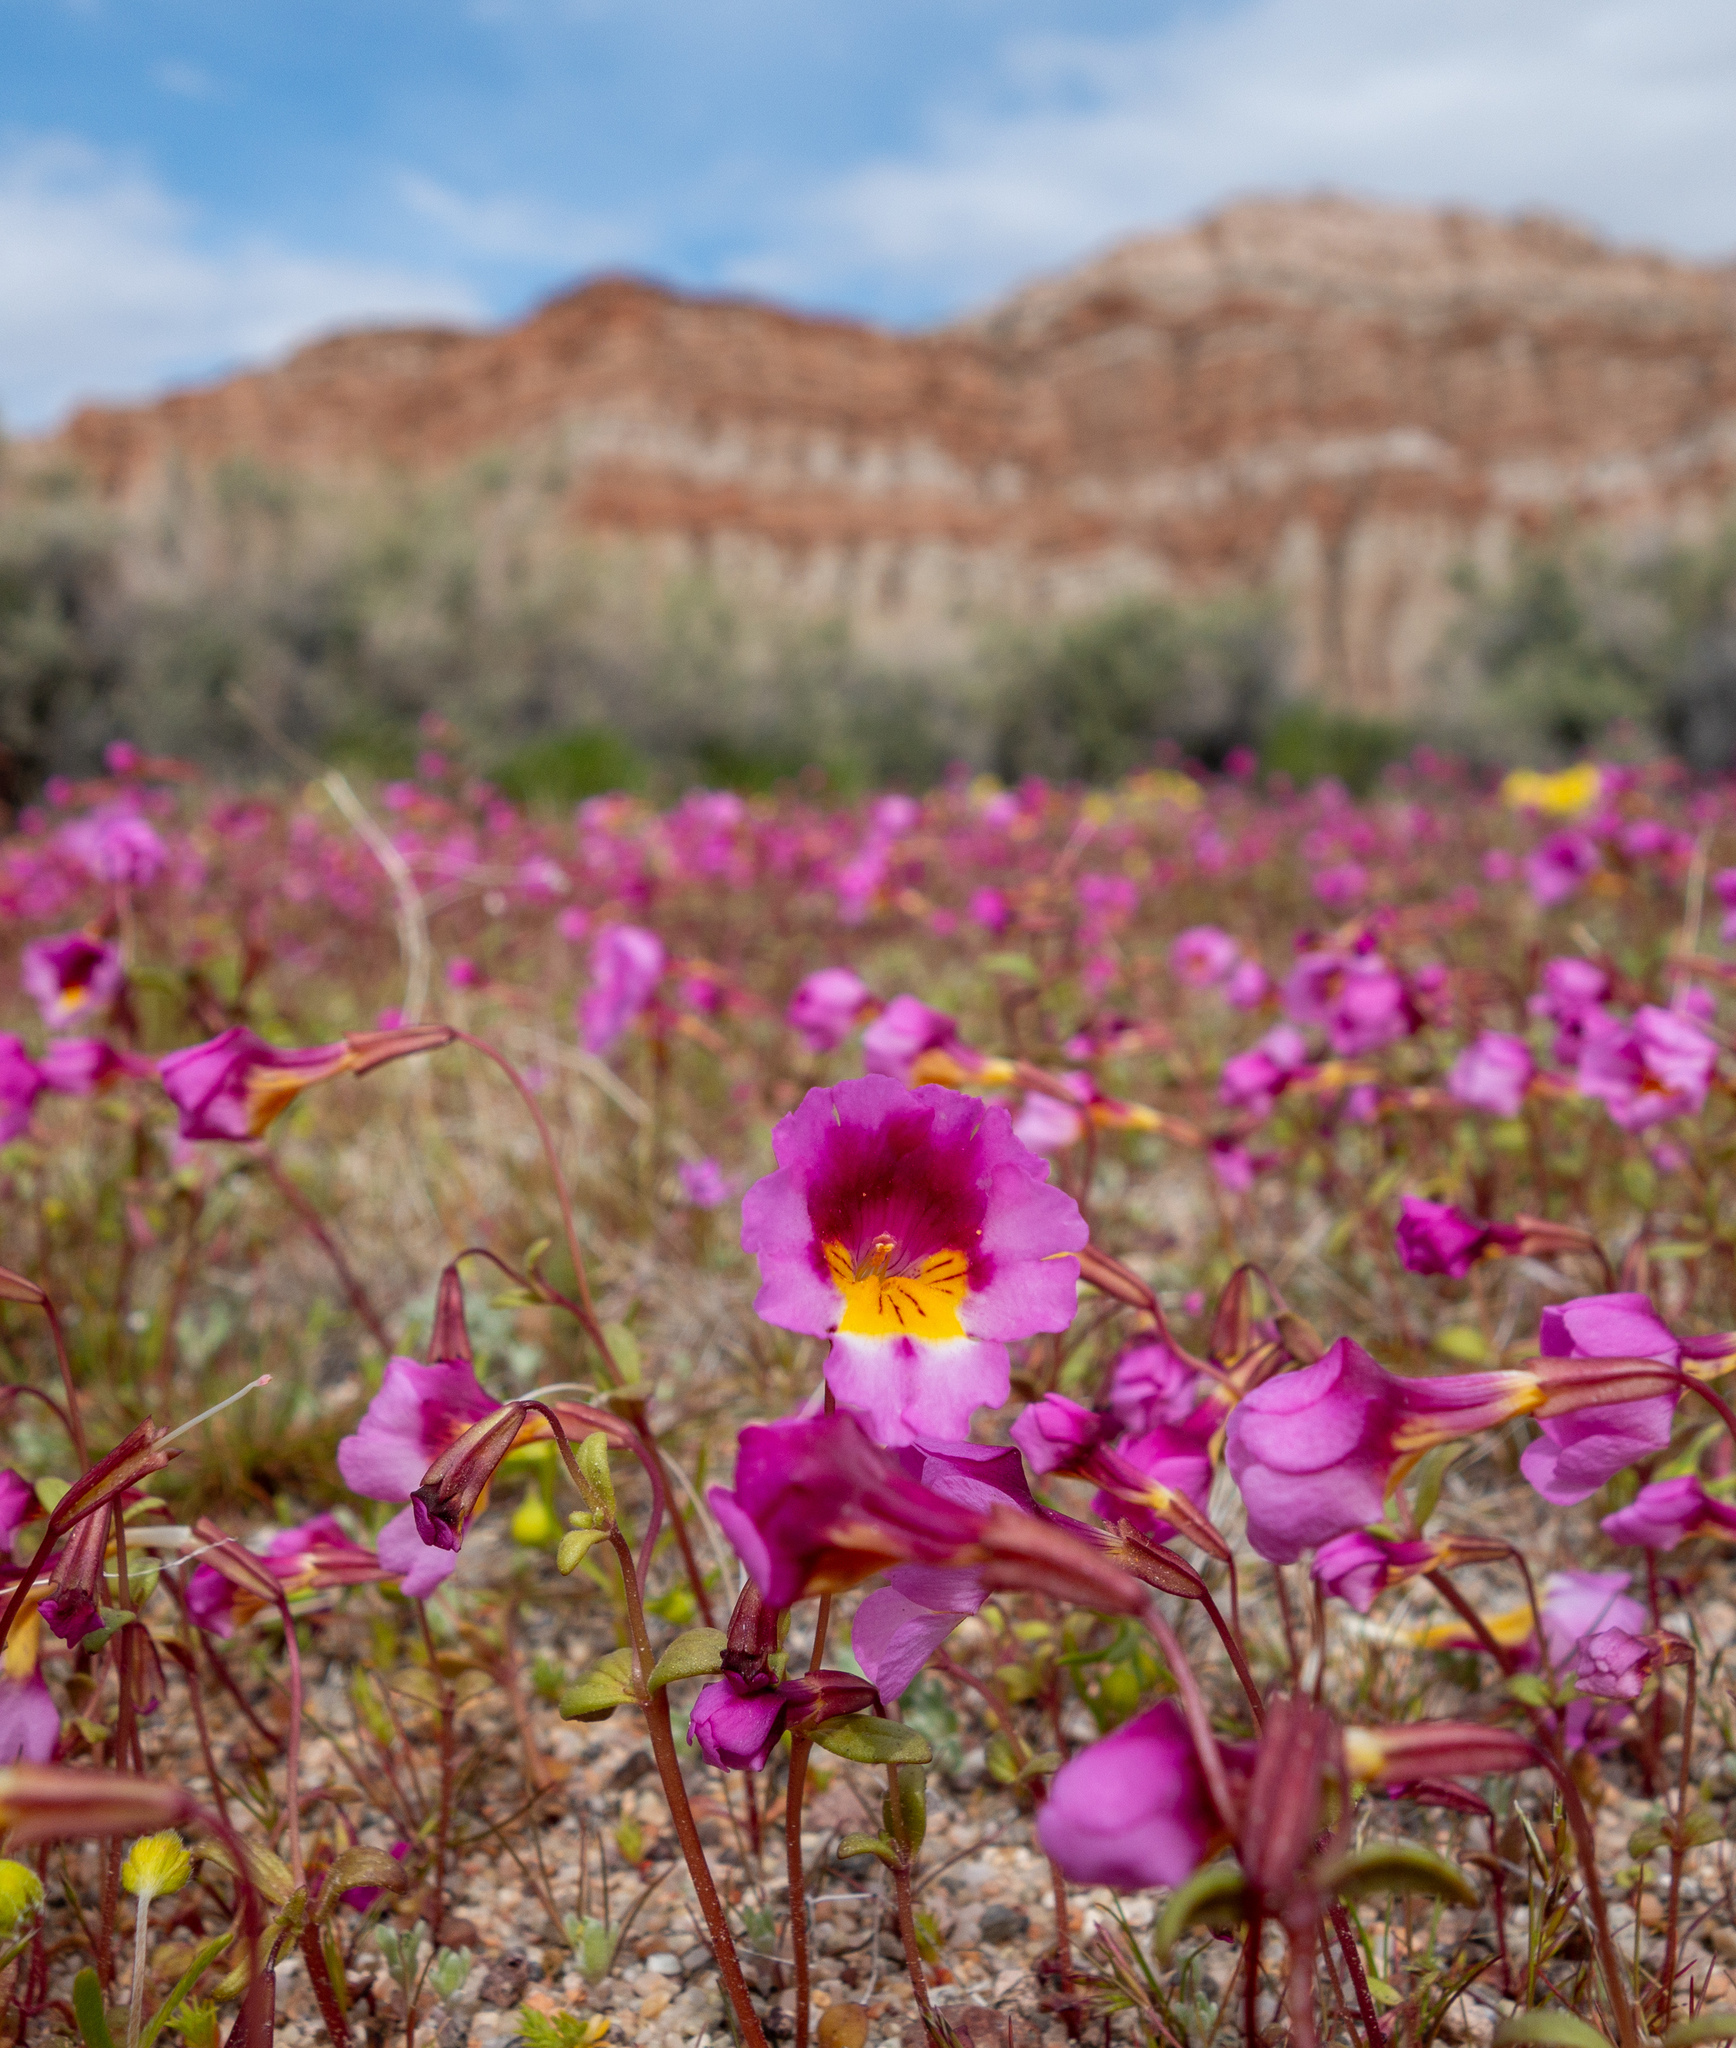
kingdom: Plantae
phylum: Tracheophyta
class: Magnoliopsida
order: Lamiales
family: Phrymaceae
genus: Erythranthe
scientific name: Erythranthe rhodopetra
